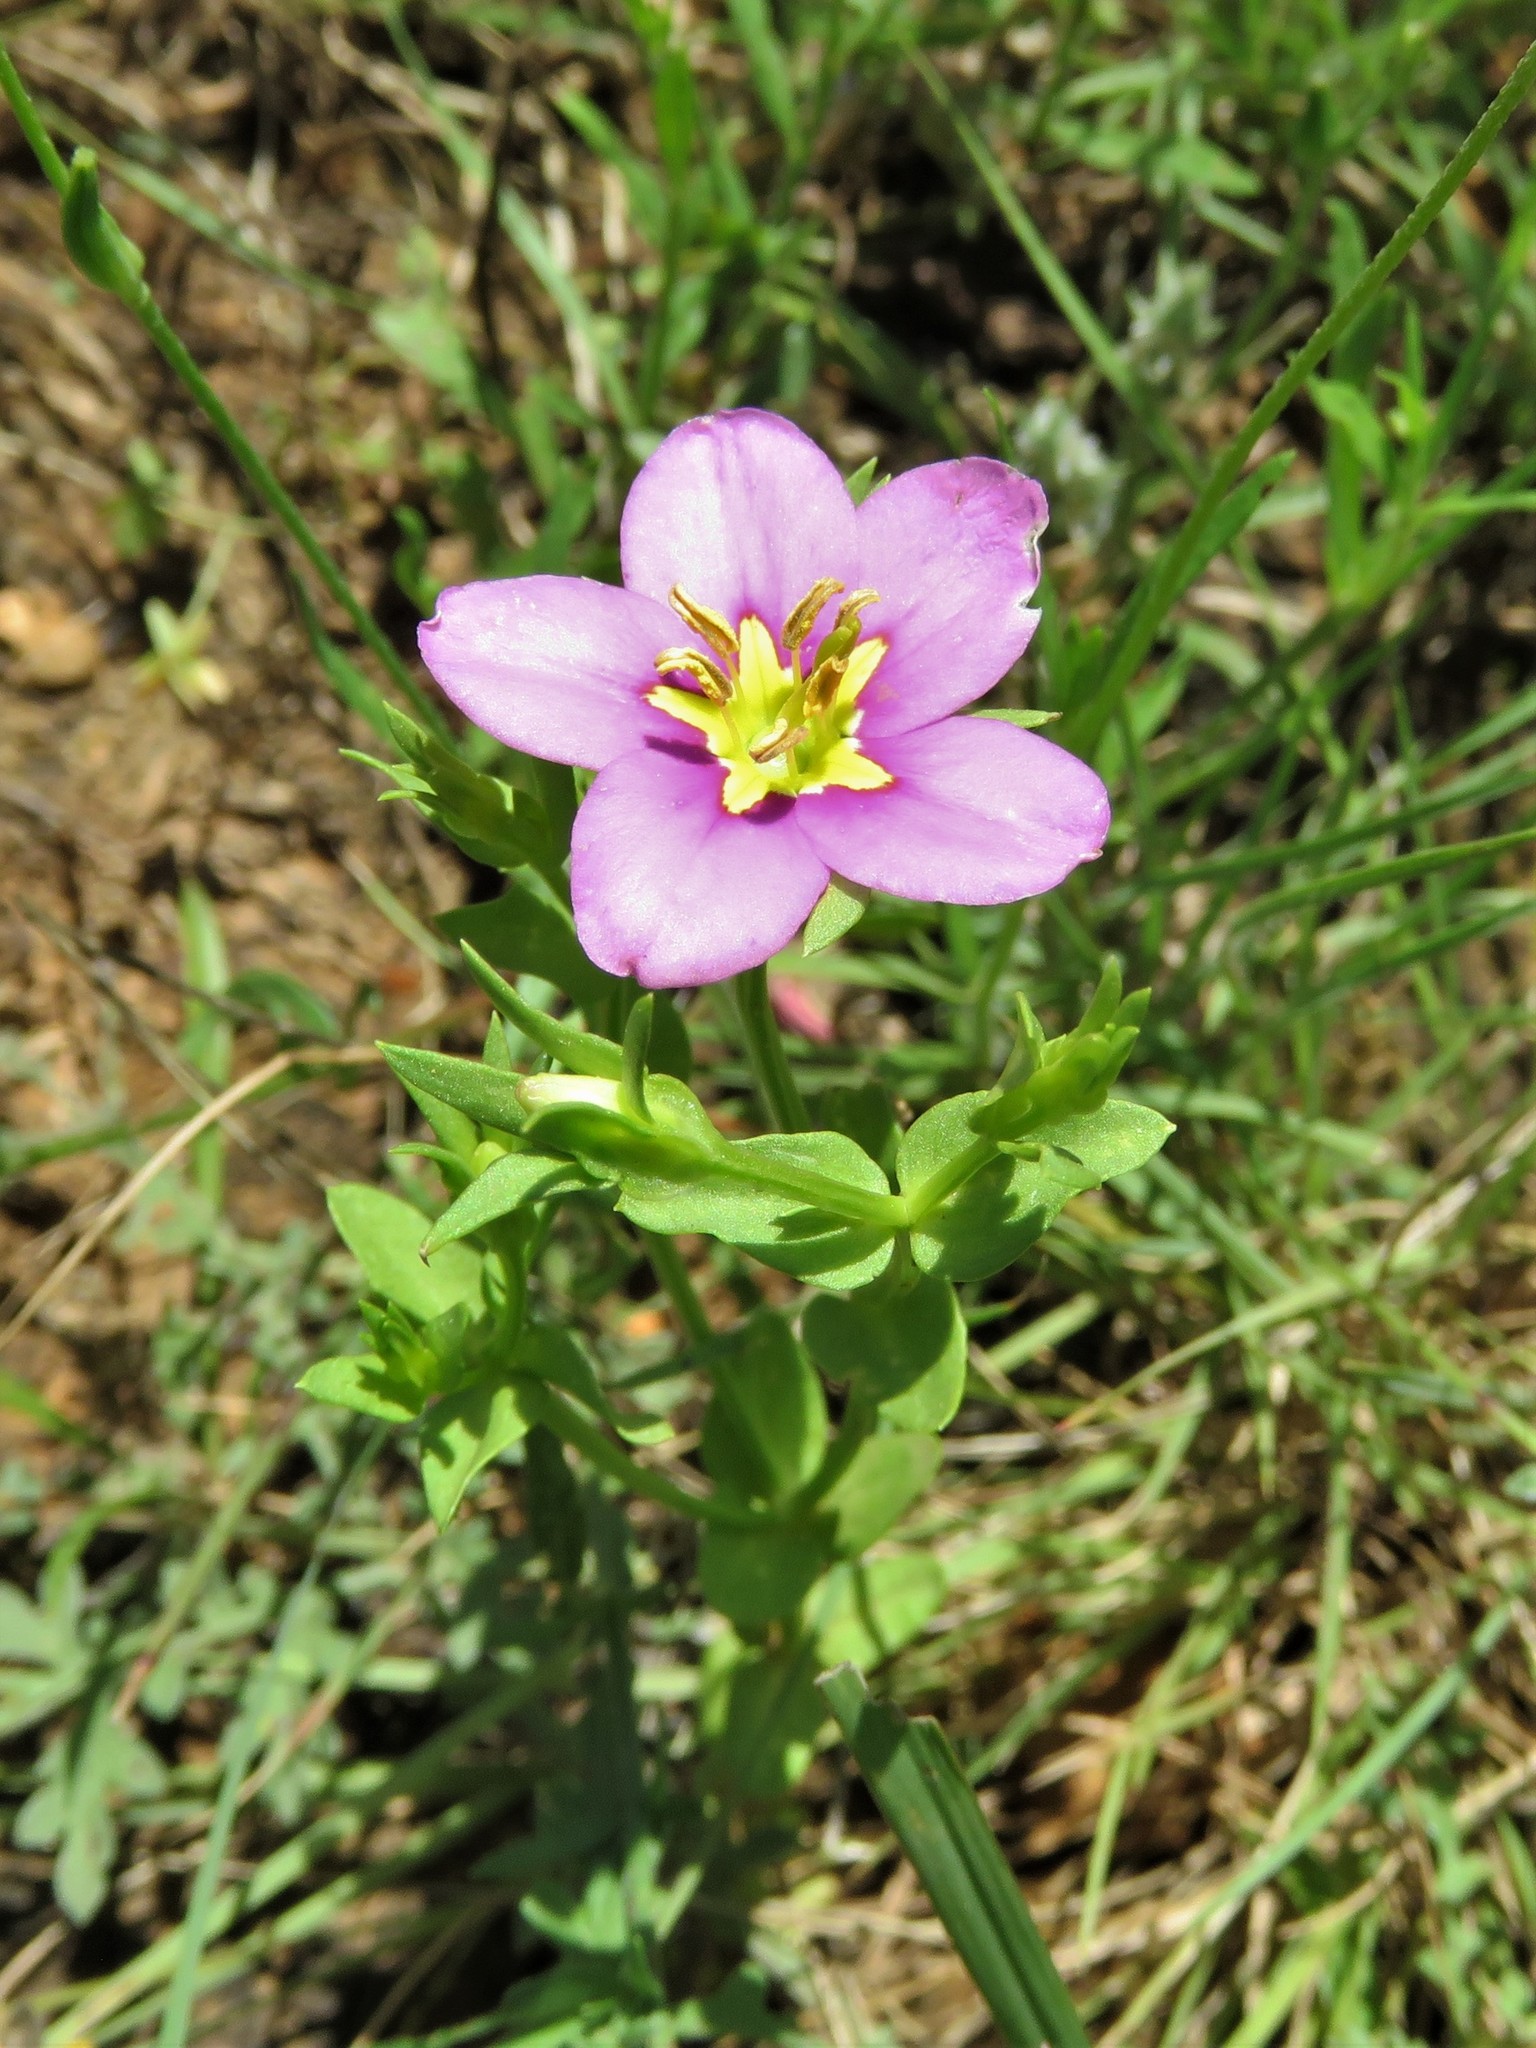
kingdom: Plantae
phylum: Tracheophyta
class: Magnoliopsida
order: Gentianales
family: Gentianaceae
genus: Sabatia
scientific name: Sabatia campestris
